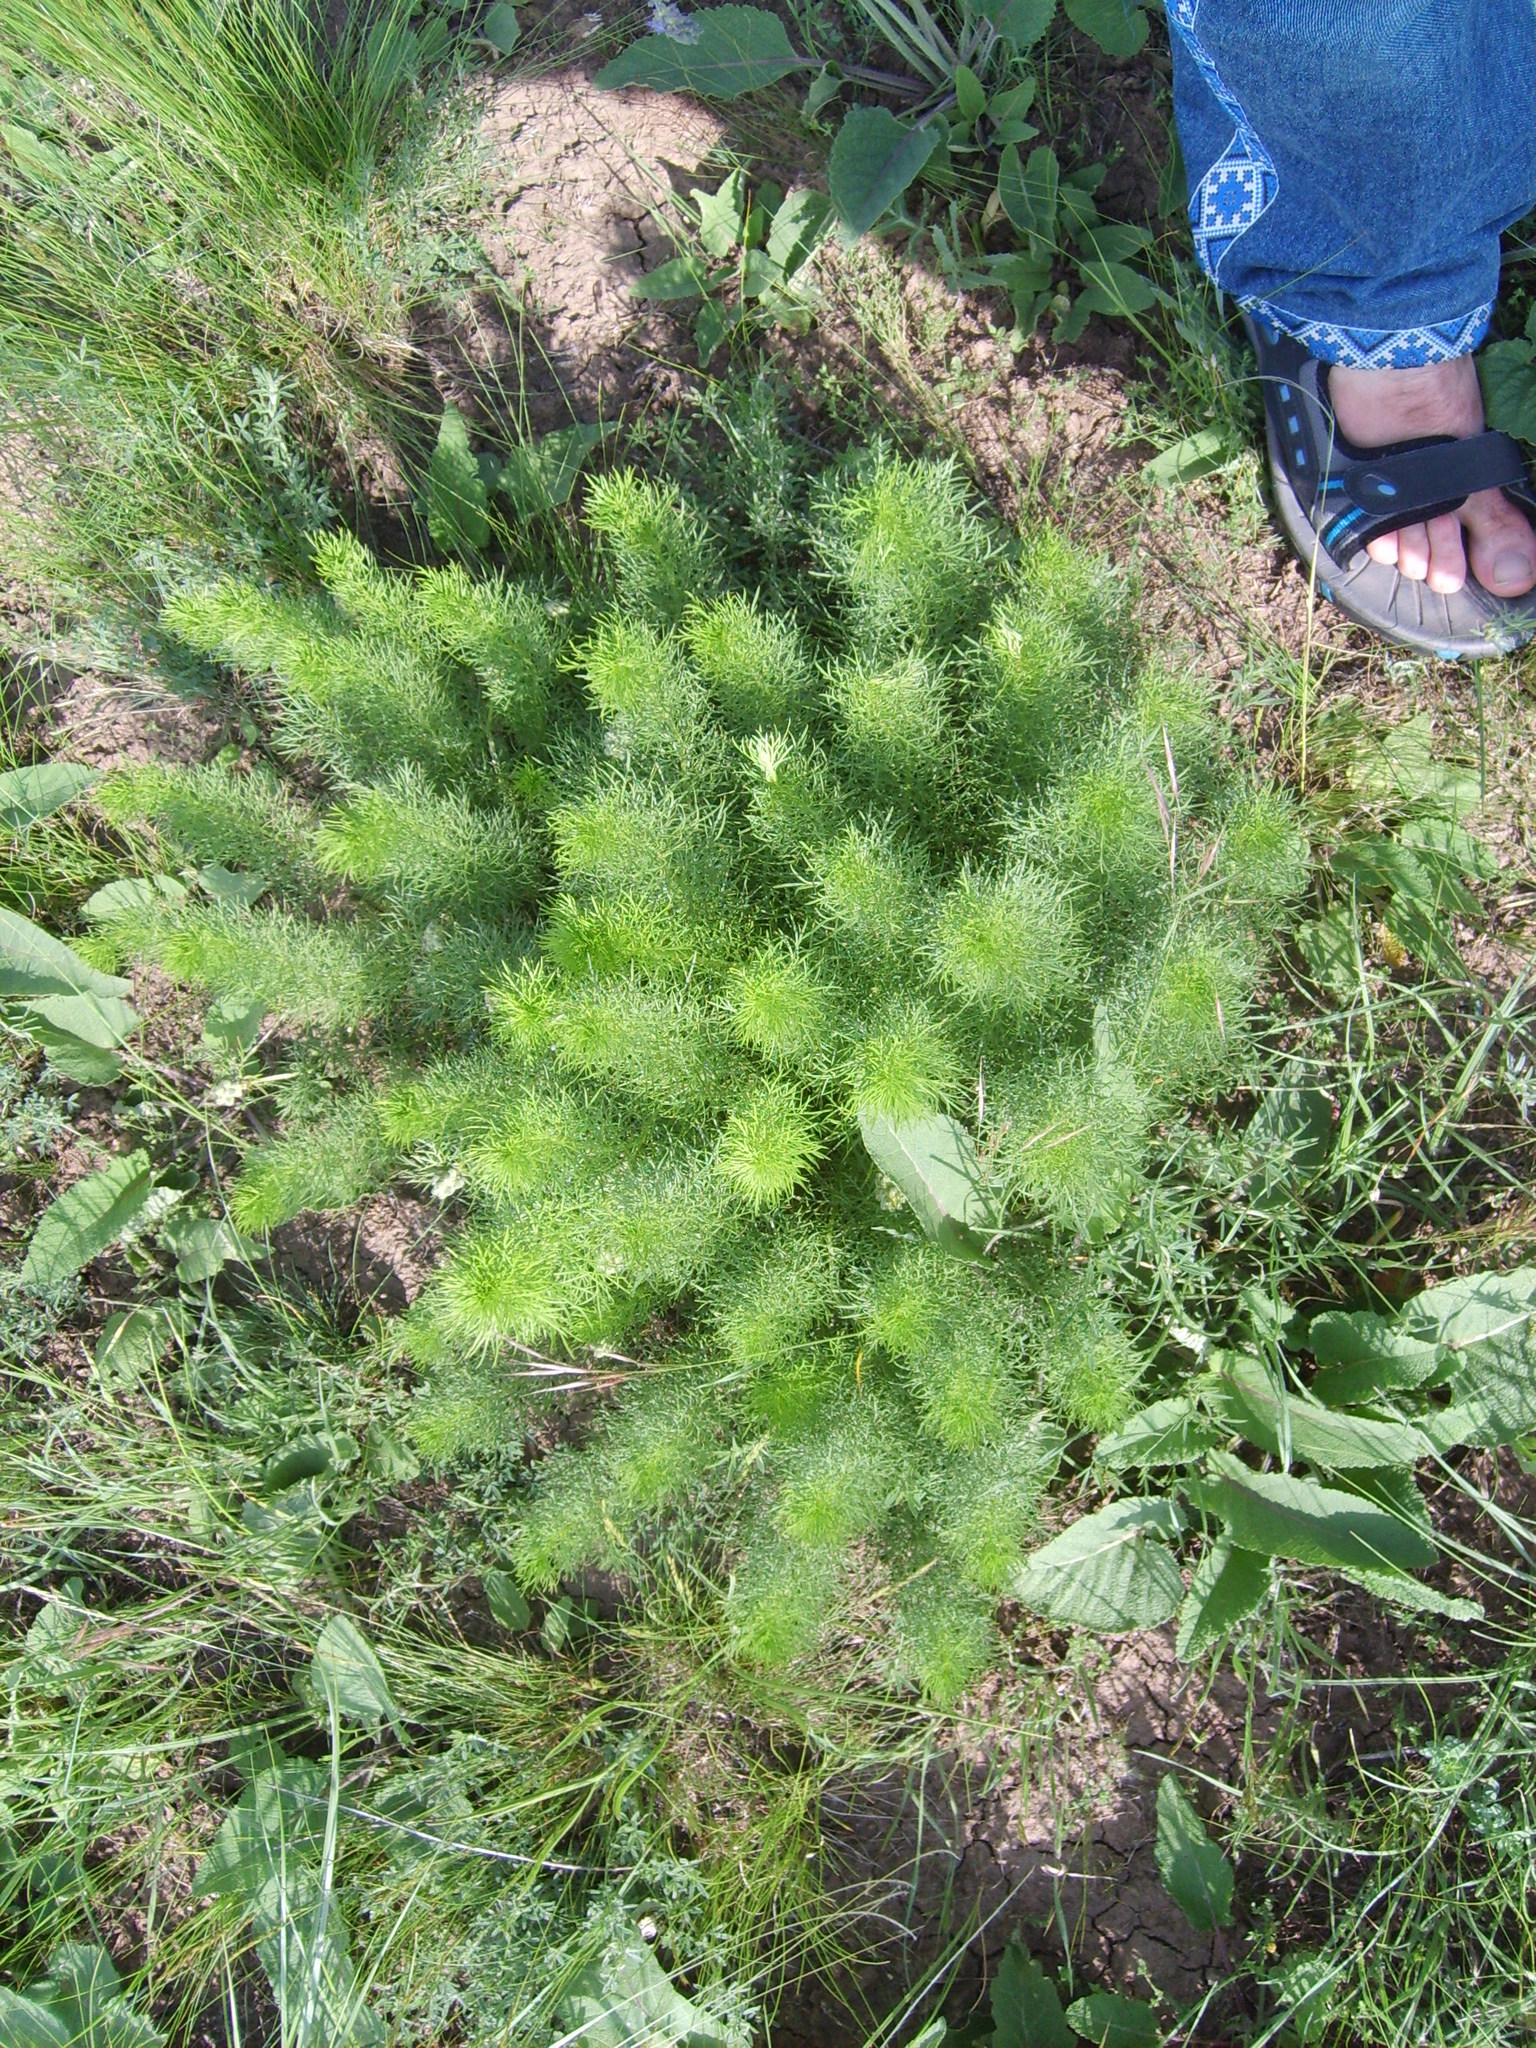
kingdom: Plantae
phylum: Tracheophyta
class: Magnoliopsida
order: Ranunculales
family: Ranunculaceae
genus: Adonis
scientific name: Adonis vernalis
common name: Yellow pheasants-eye
